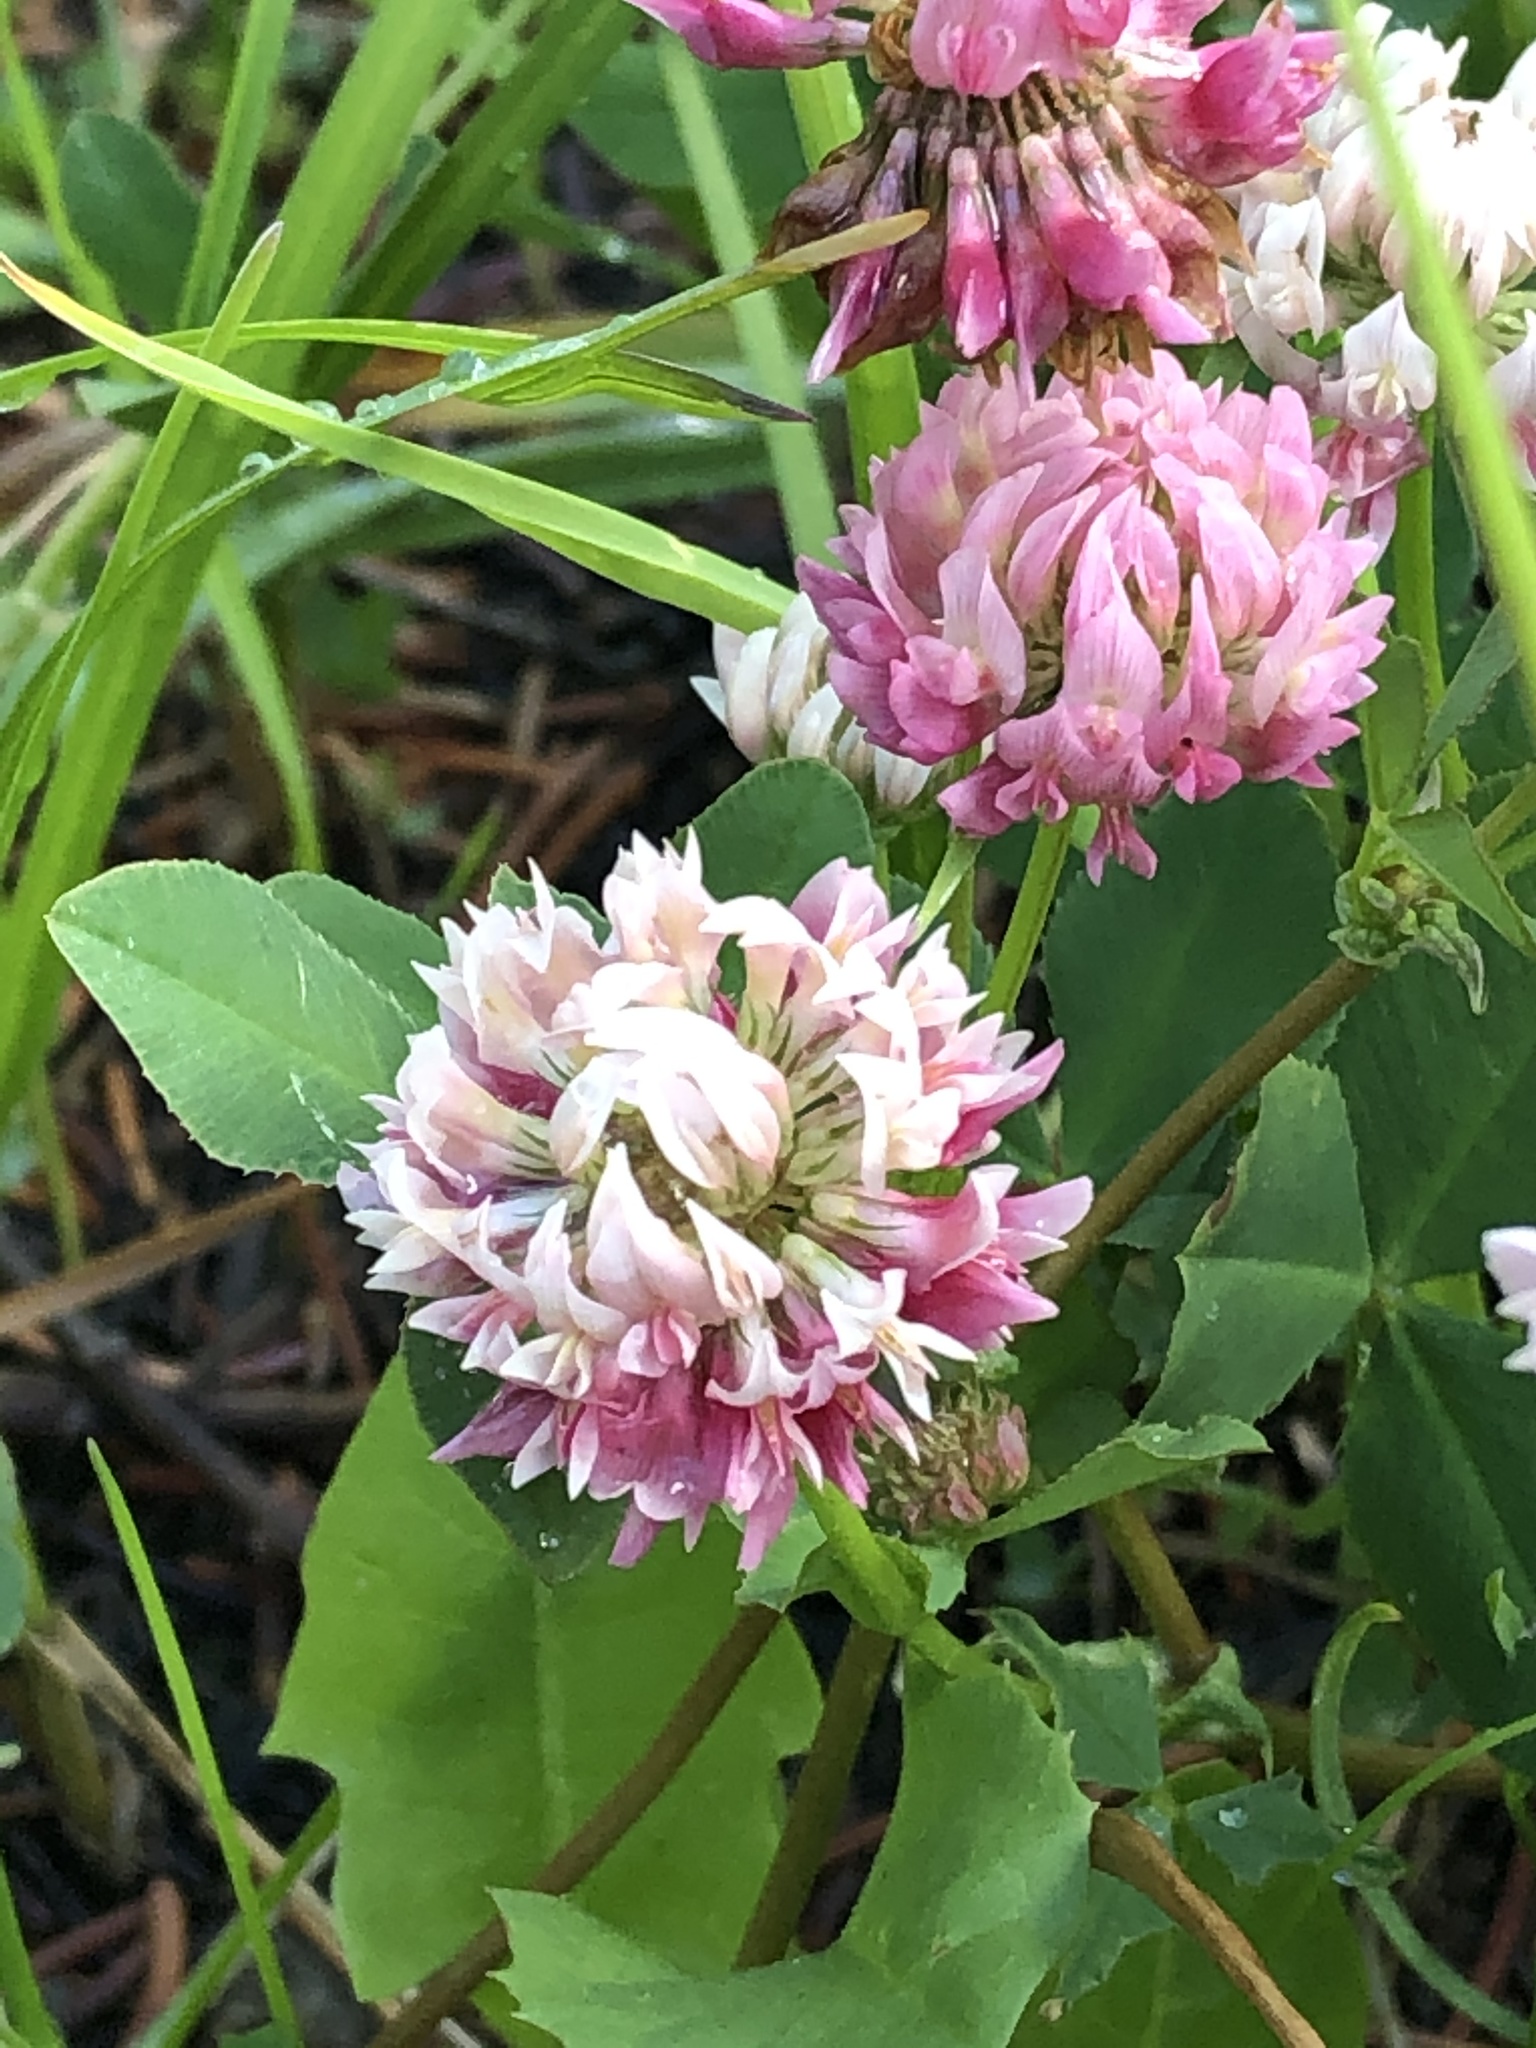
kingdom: Plantae
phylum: Tracheophyta
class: Magnoliopsida
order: Fabales
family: Fabaceae
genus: Trifolium
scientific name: Trifolium hybridum
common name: Alsike clover
